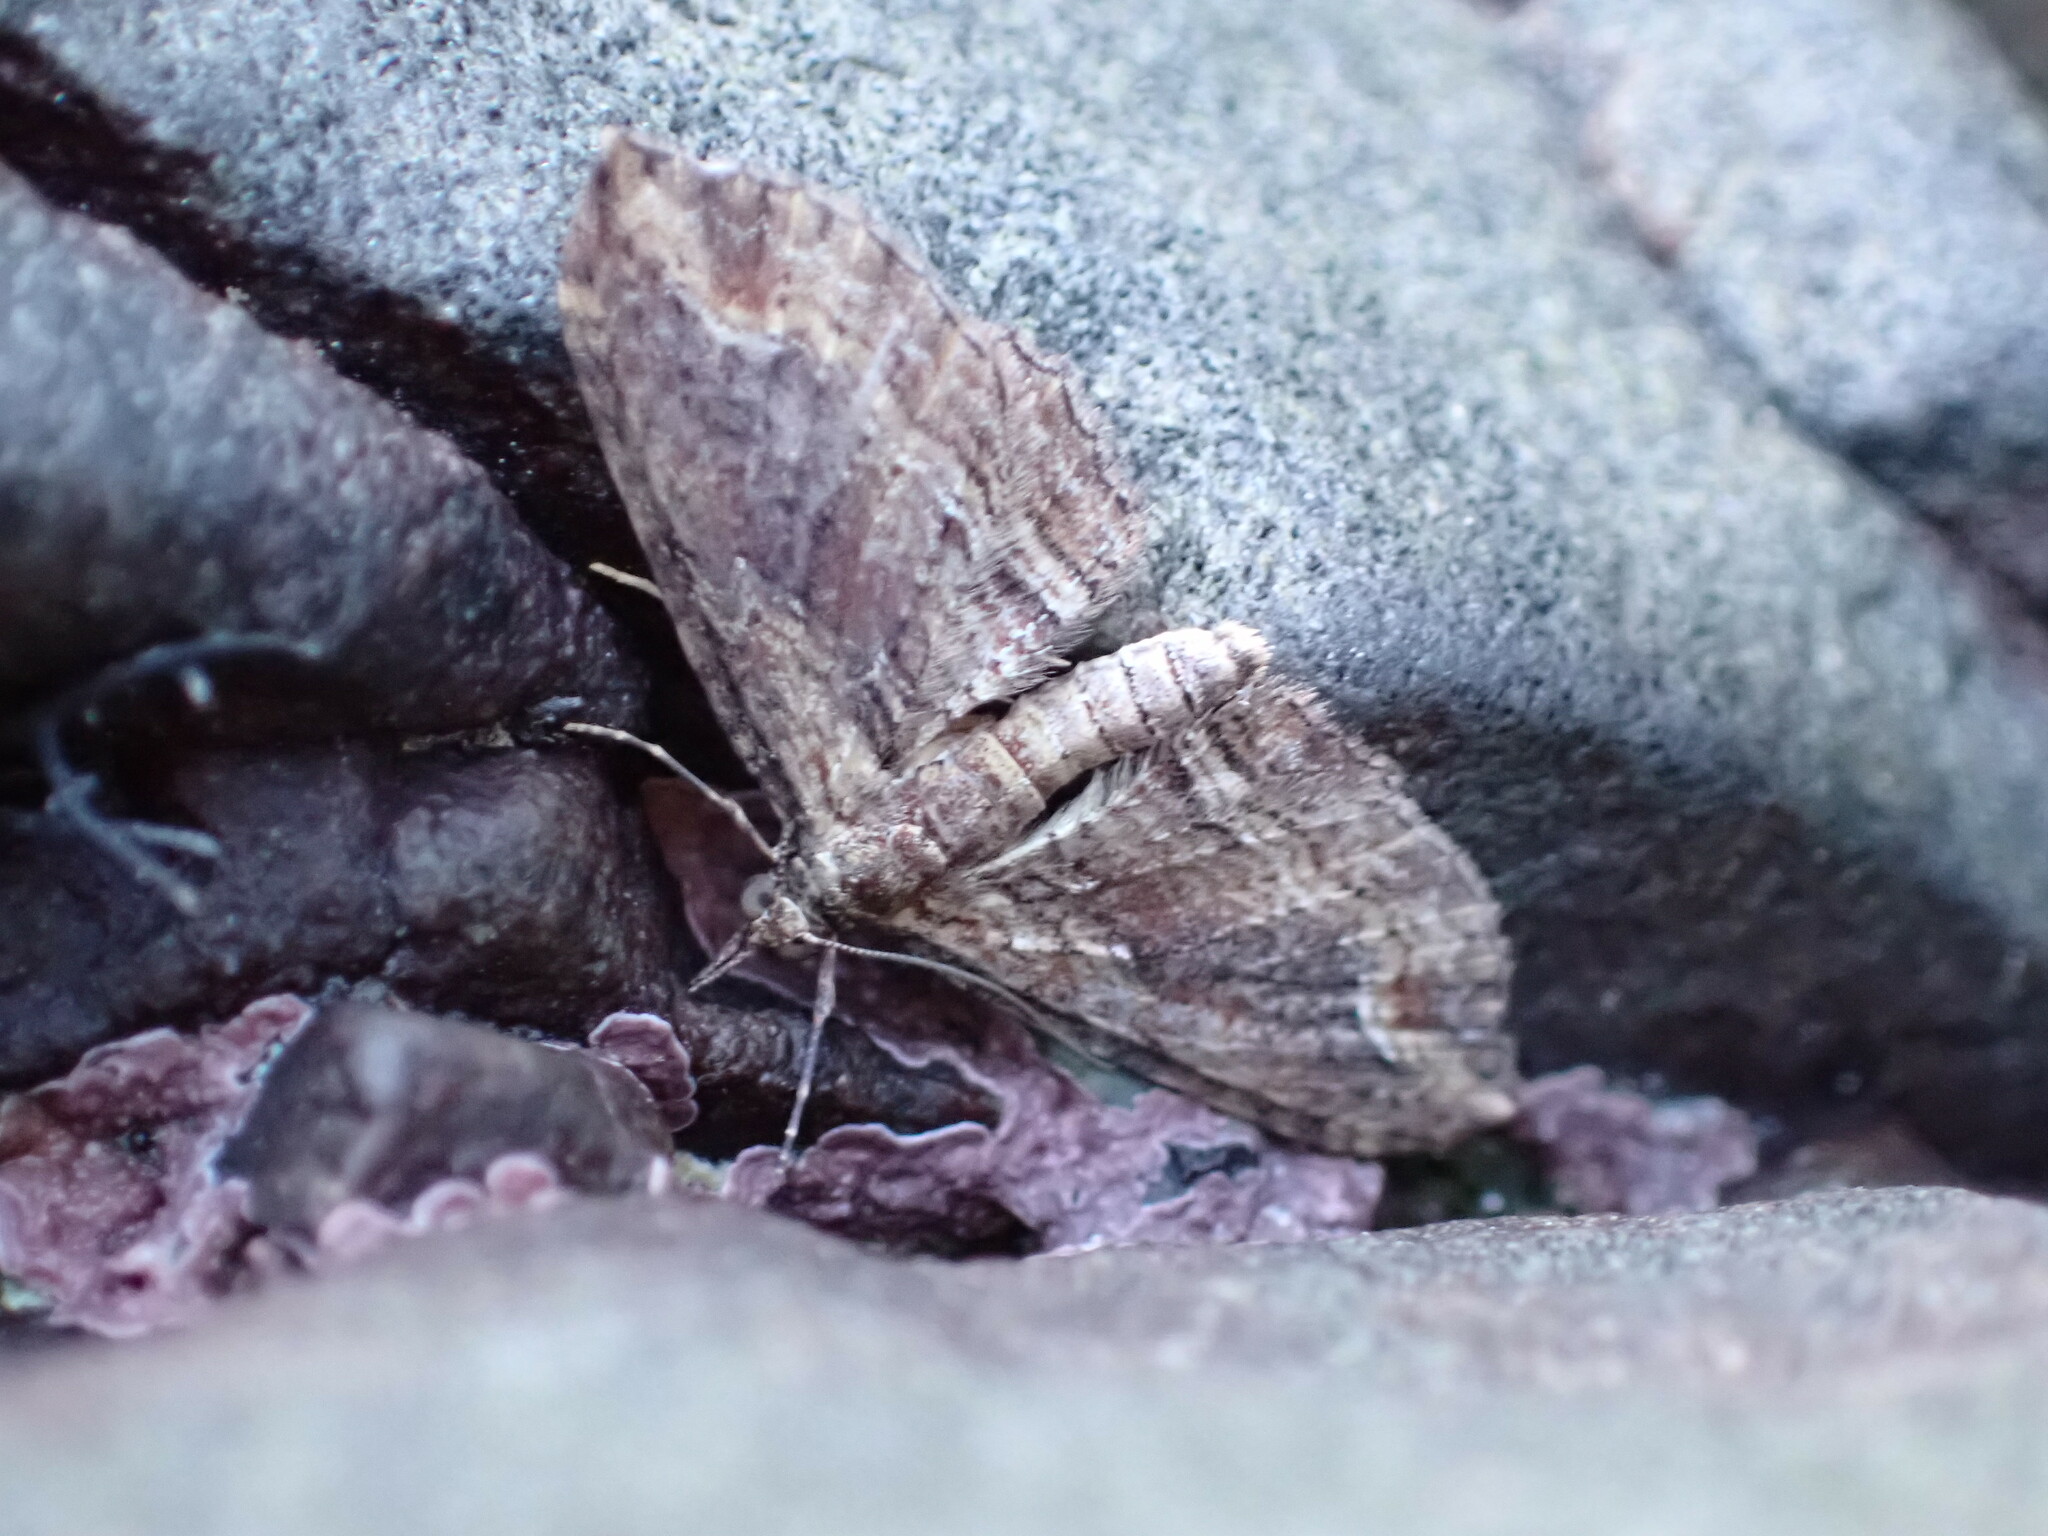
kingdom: Animalia
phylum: Arthropoda
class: Insecta
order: Lepidoptera
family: Geometridae
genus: Chloroclystis
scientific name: Chloroclystis filata
